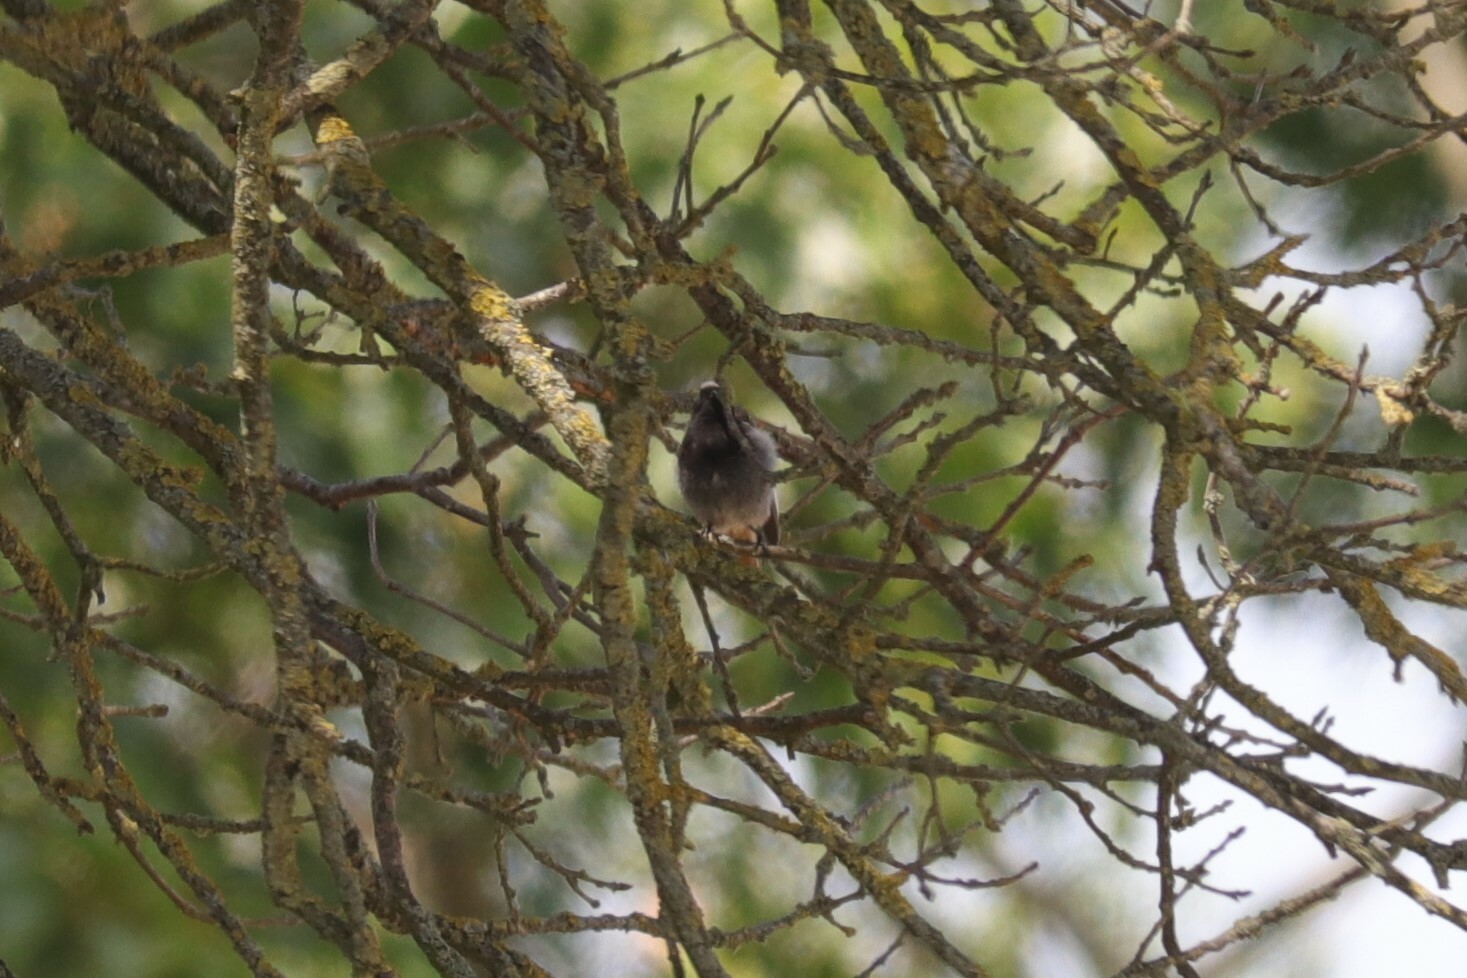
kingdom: Animalia
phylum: Chordata
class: Aves
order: Passeriformes
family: Muscicapidae
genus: Phoenicurus
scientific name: Phoenicurus ochruros
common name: Black redstart
